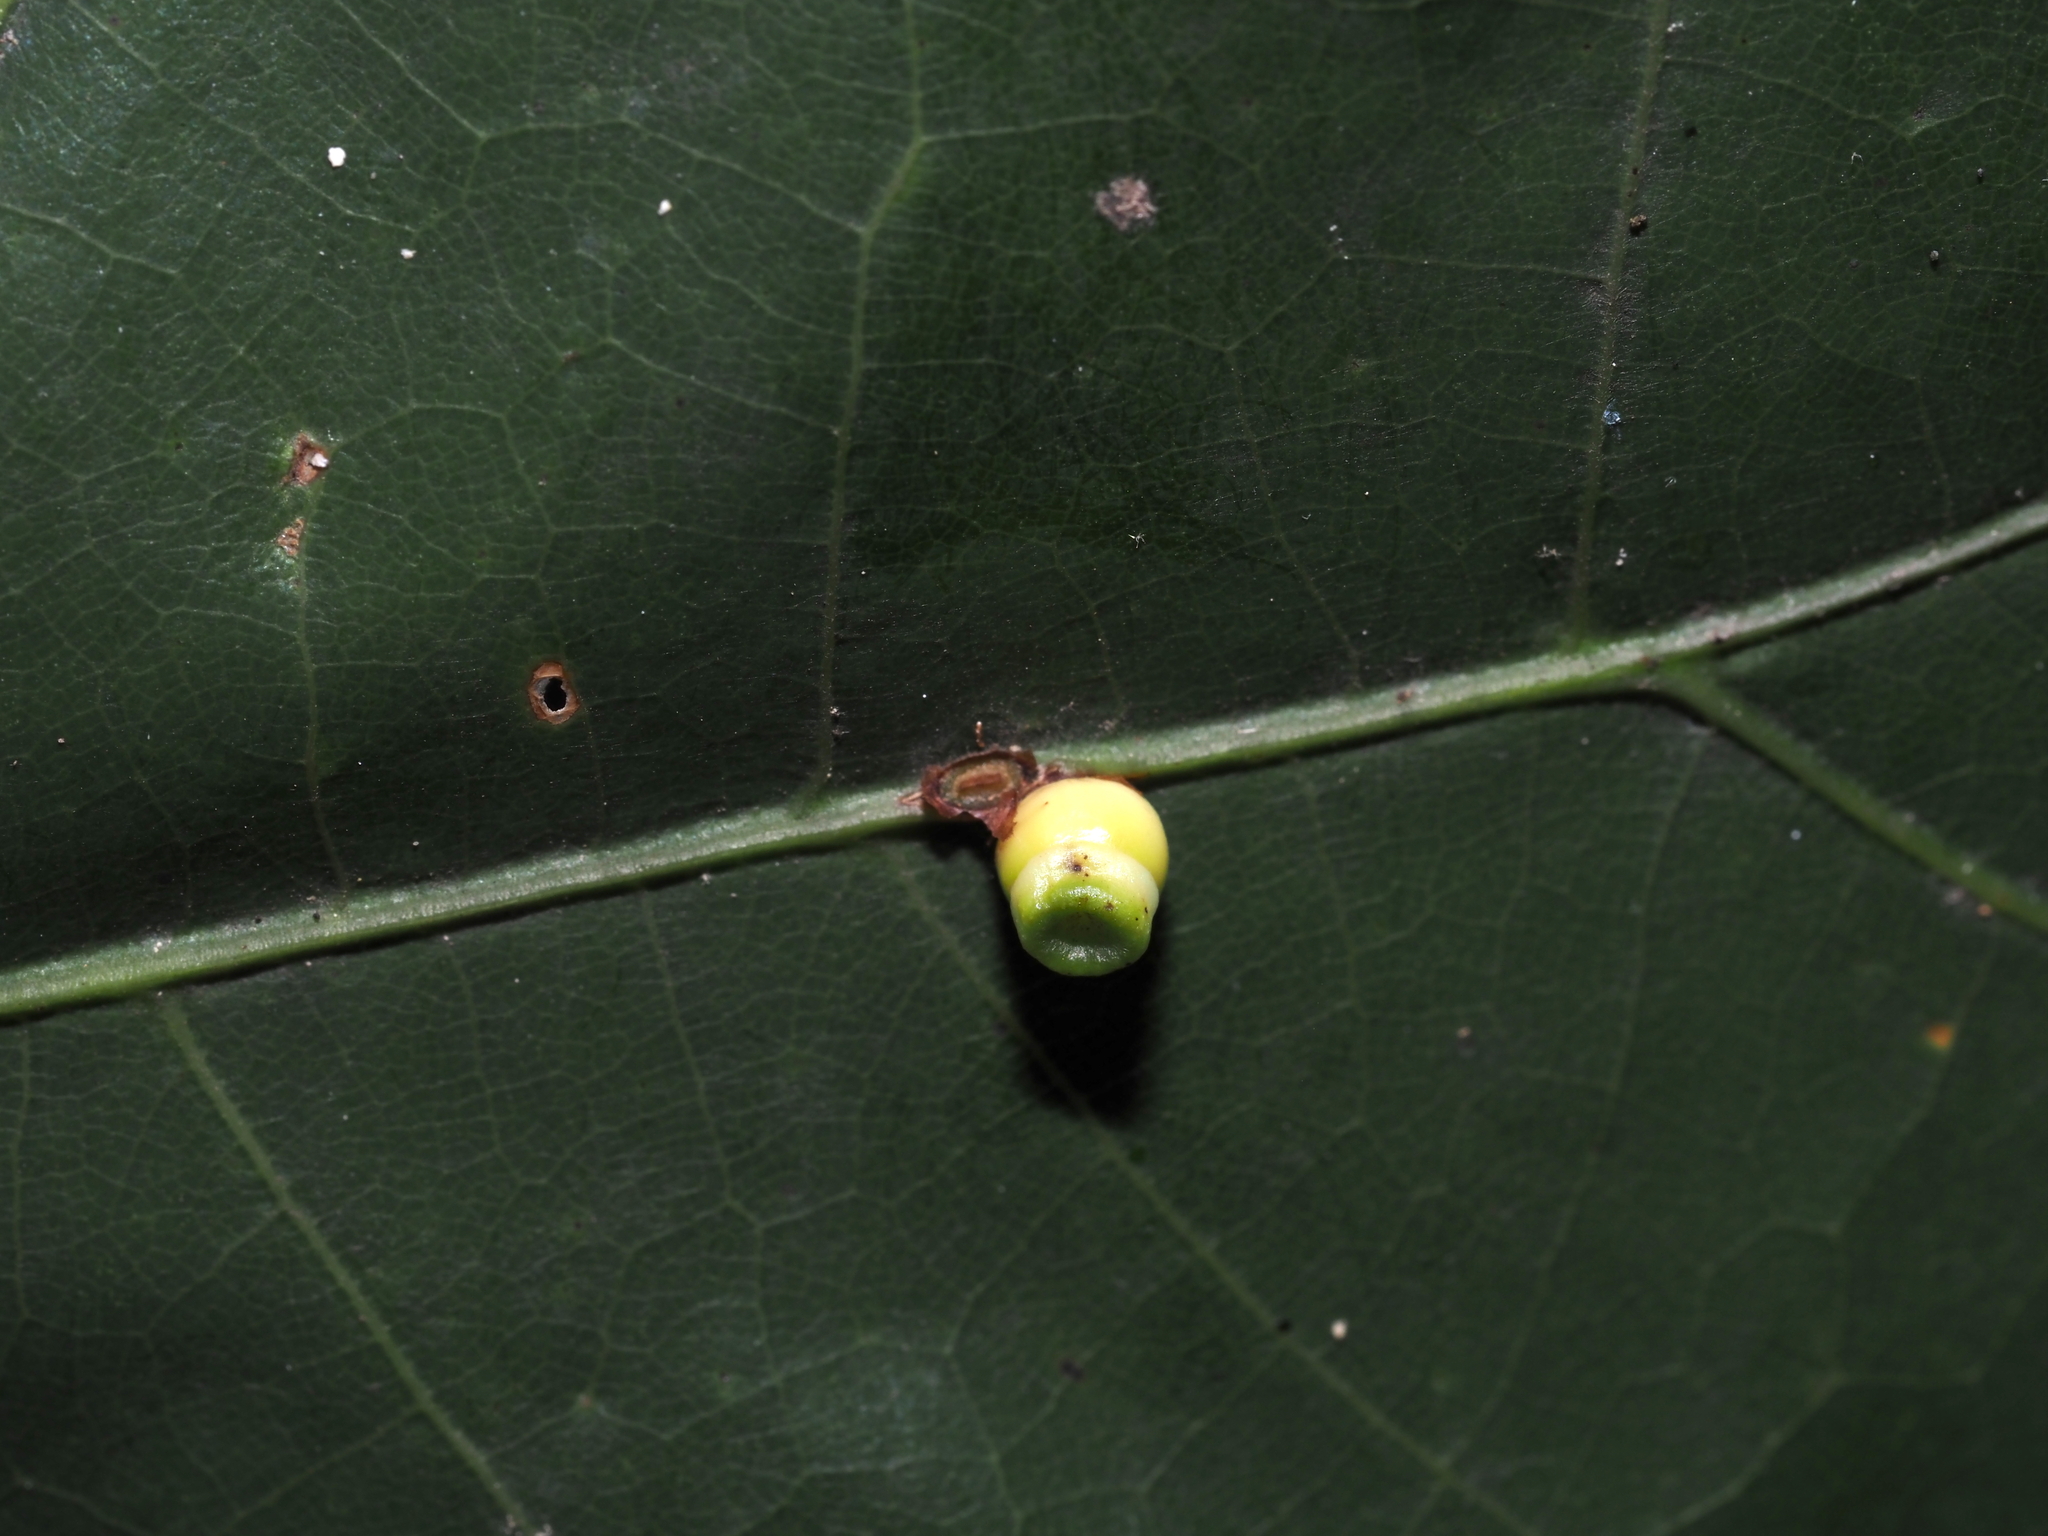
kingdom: Animalia
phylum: Arthropoda
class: Insecta
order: Hymenoptera
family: Cynipidae
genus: Kokkocynips
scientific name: Kokkocynips rileyi
